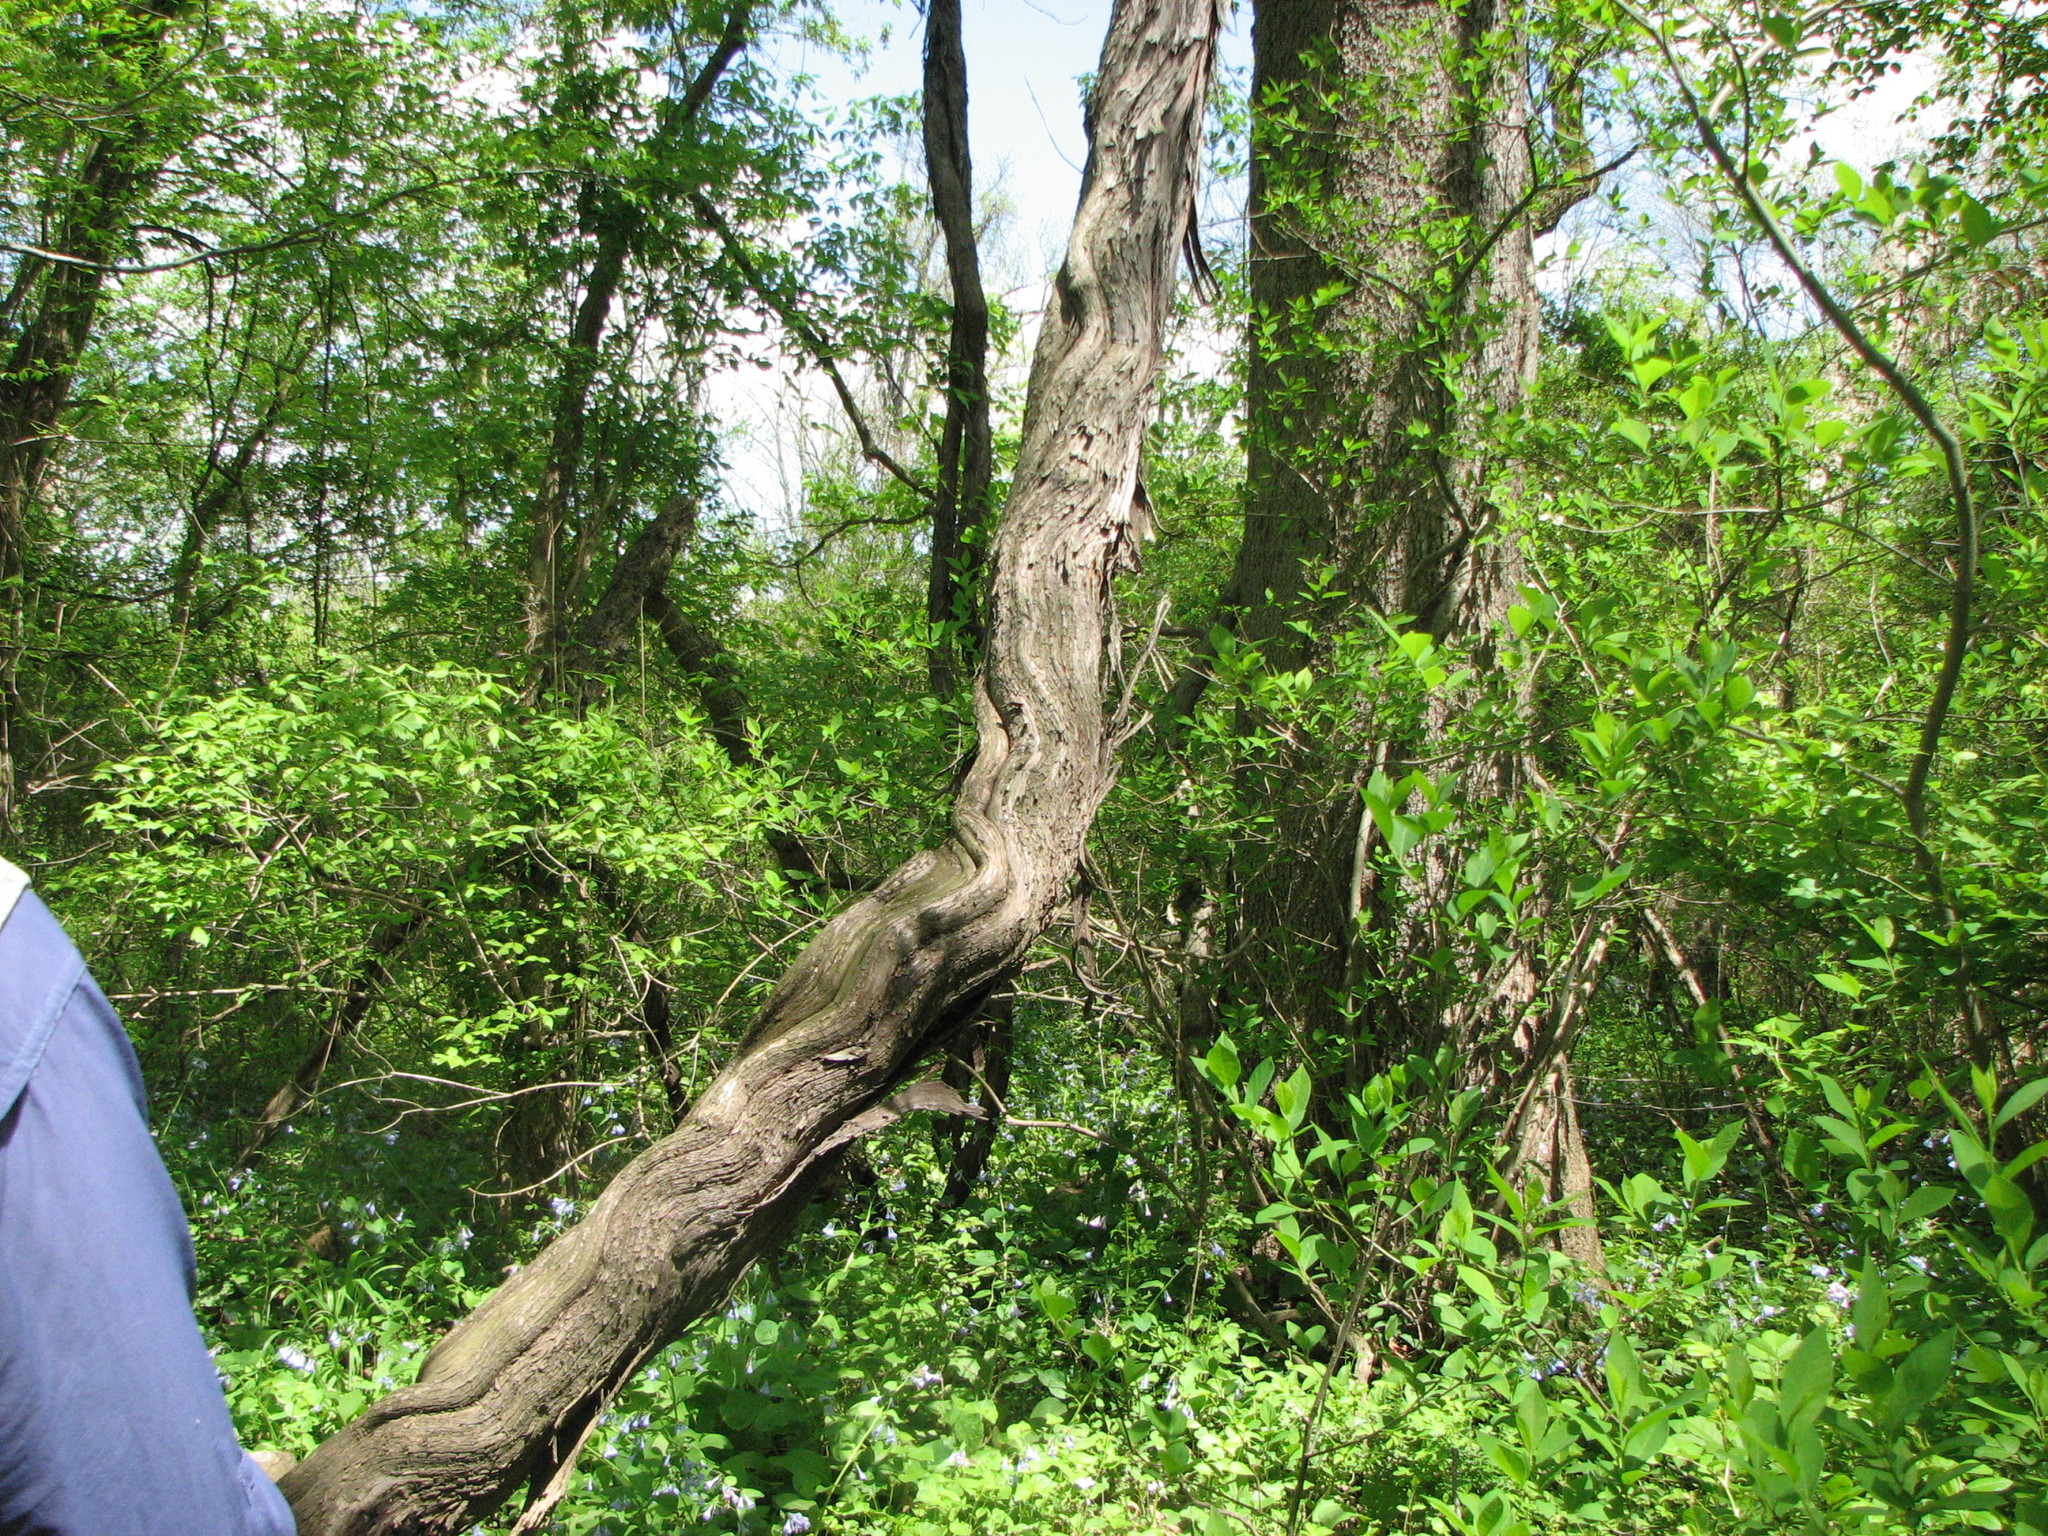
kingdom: Plantae
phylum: Tracheophyta
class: Magnoliopsida
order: Vitales
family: Vitaceae
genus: Vitis
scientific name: Vitis
